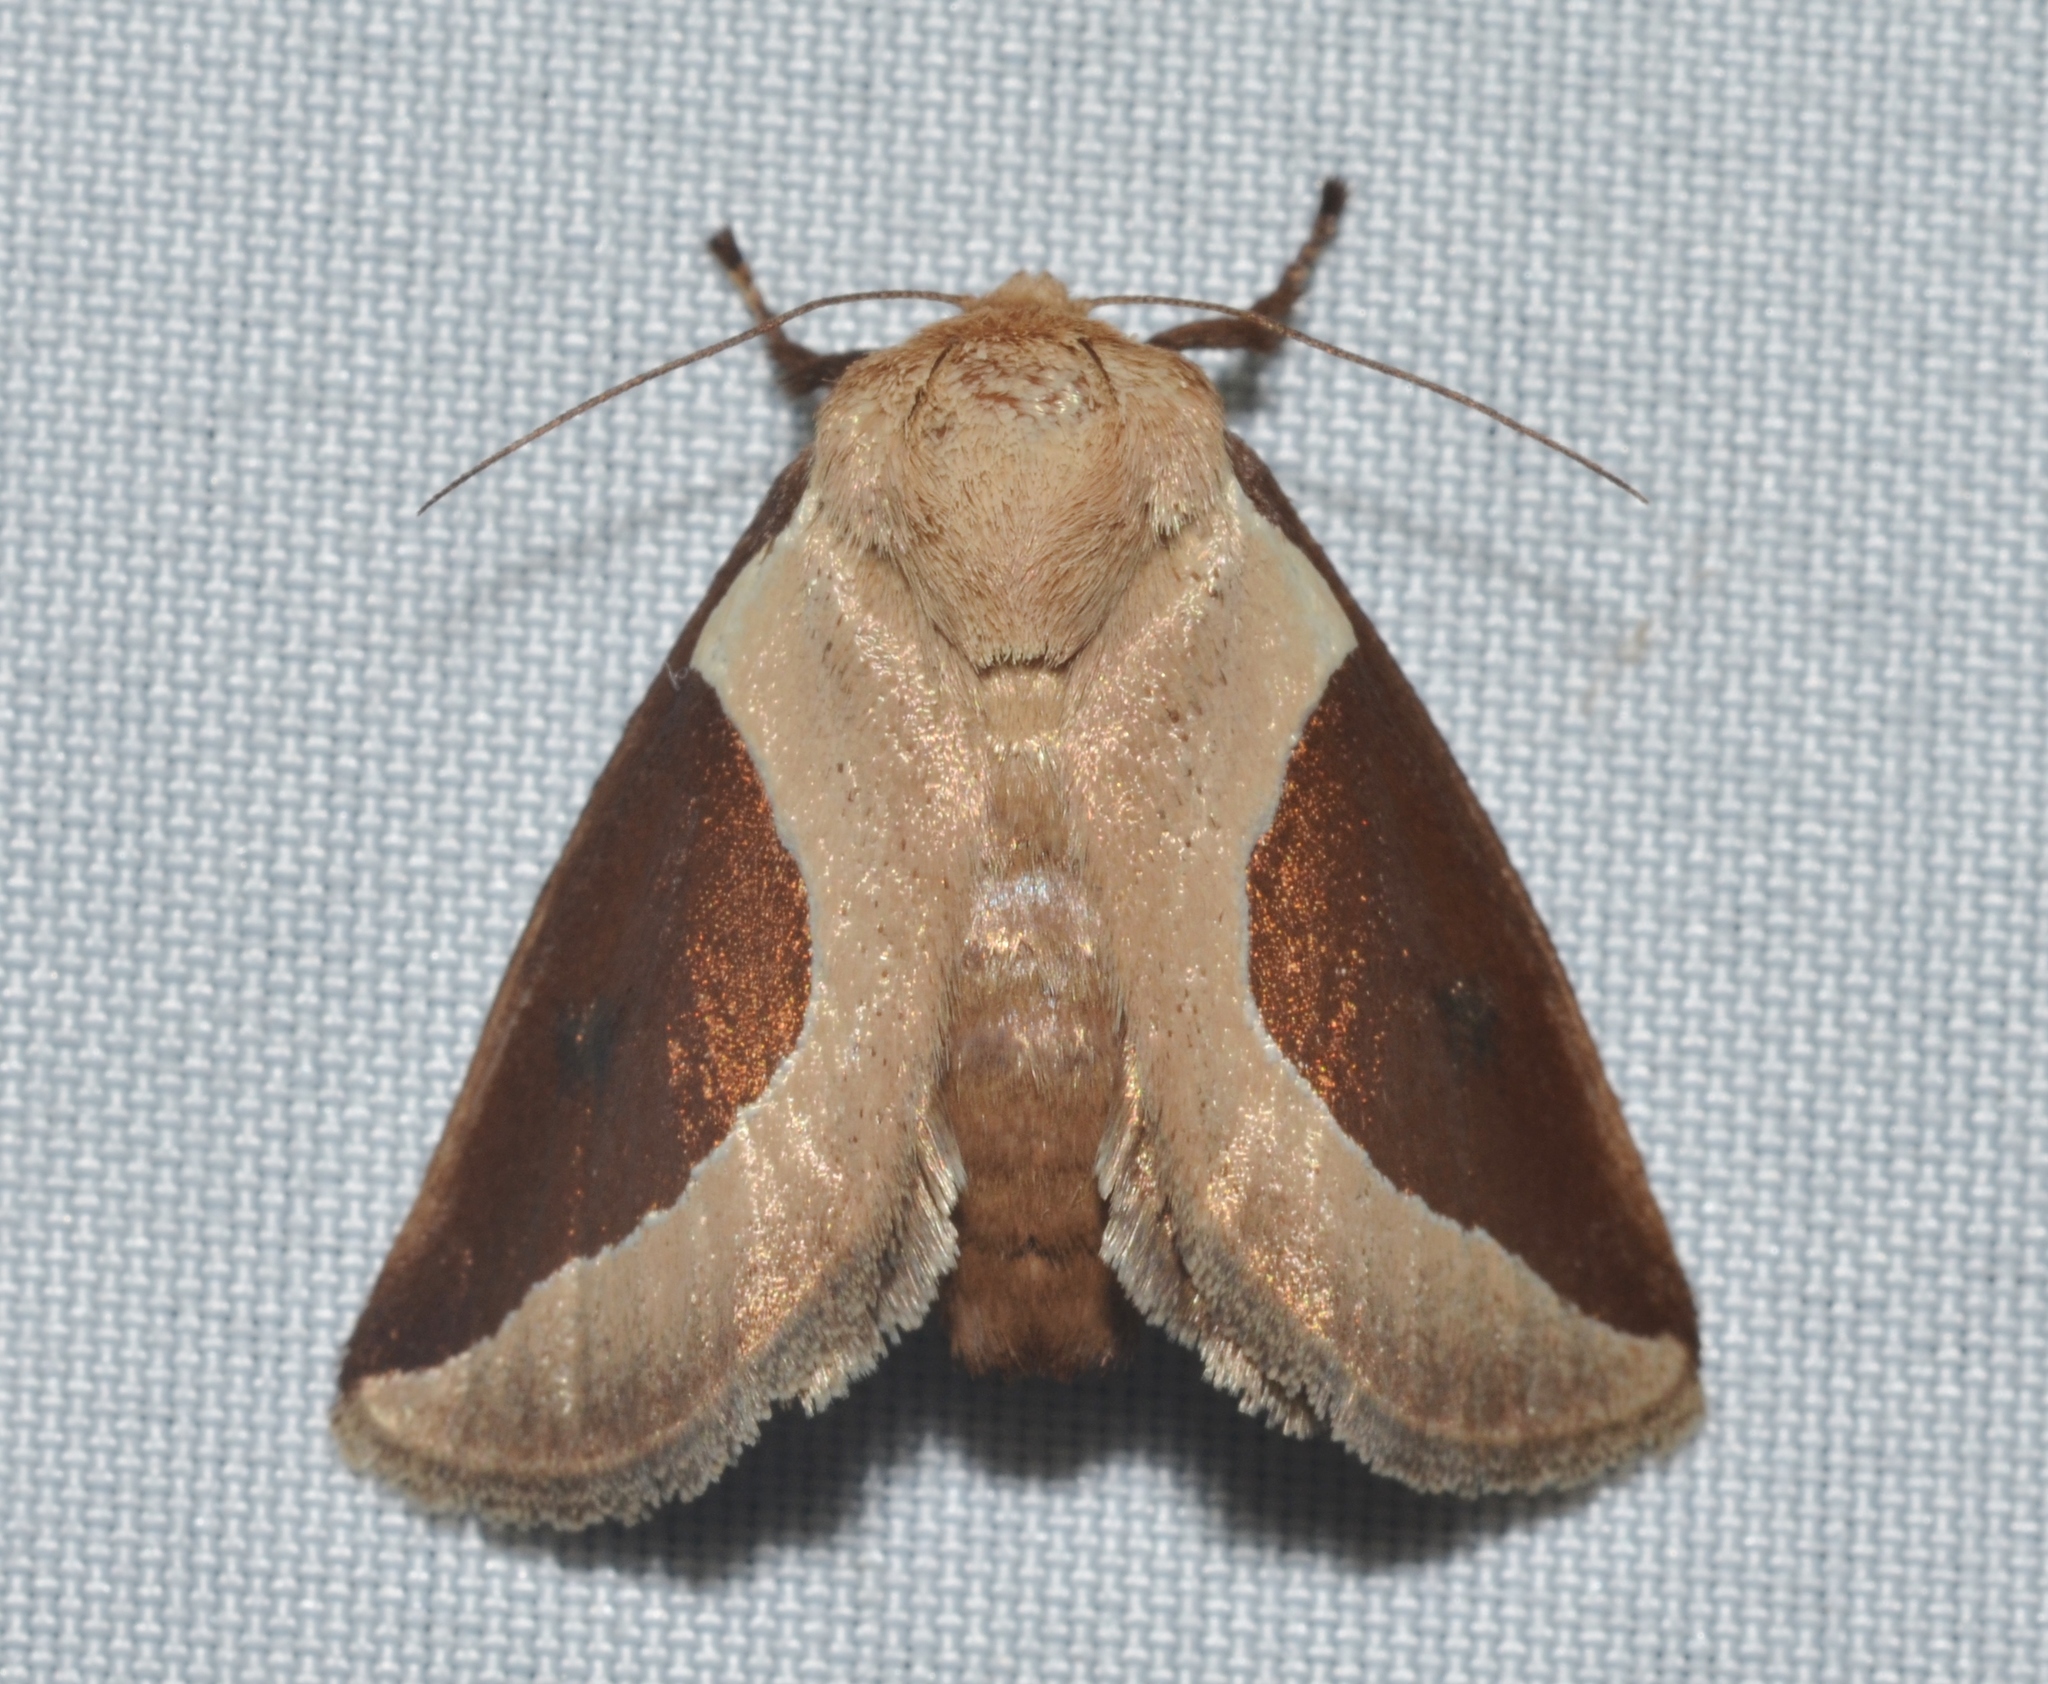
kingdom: Animalia
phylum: Arthropoda
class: Insecta
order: Lepidoptera
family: Limacodidae
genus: Prolimacodes
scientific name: Prolimacodes badia
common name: Skiff moth
